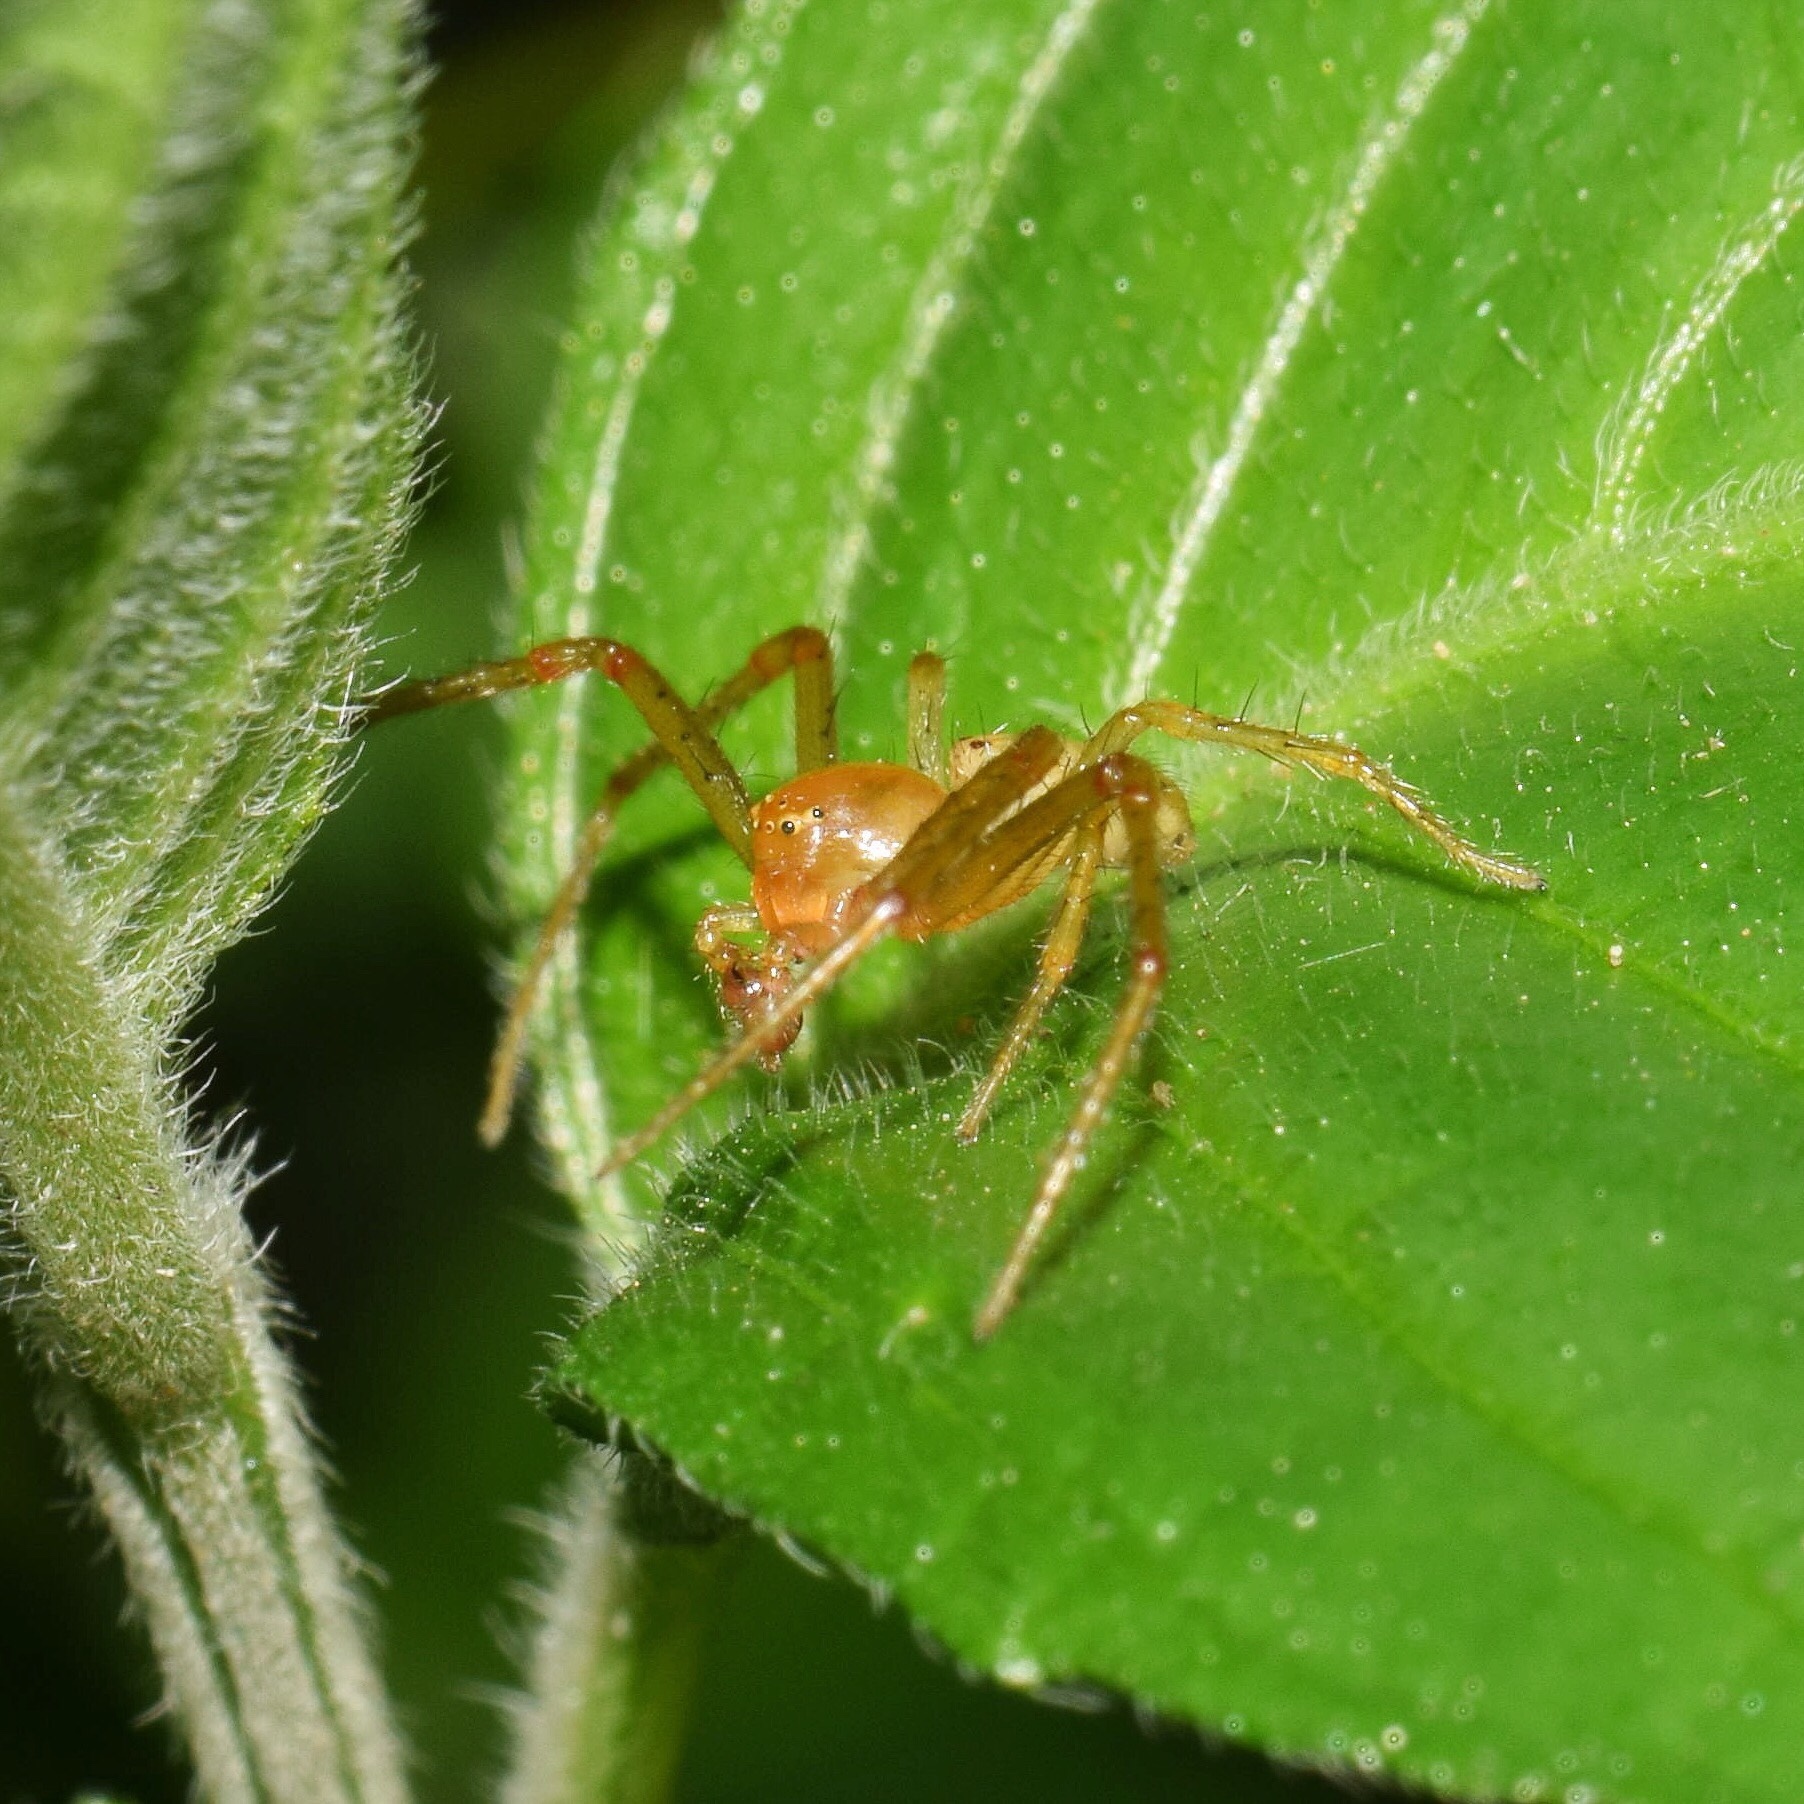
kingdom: Animalia
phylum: Arthropoda
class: Arachnida
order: Araneae
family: Thomisidae
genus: Diaea
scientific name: Diaea puncta
